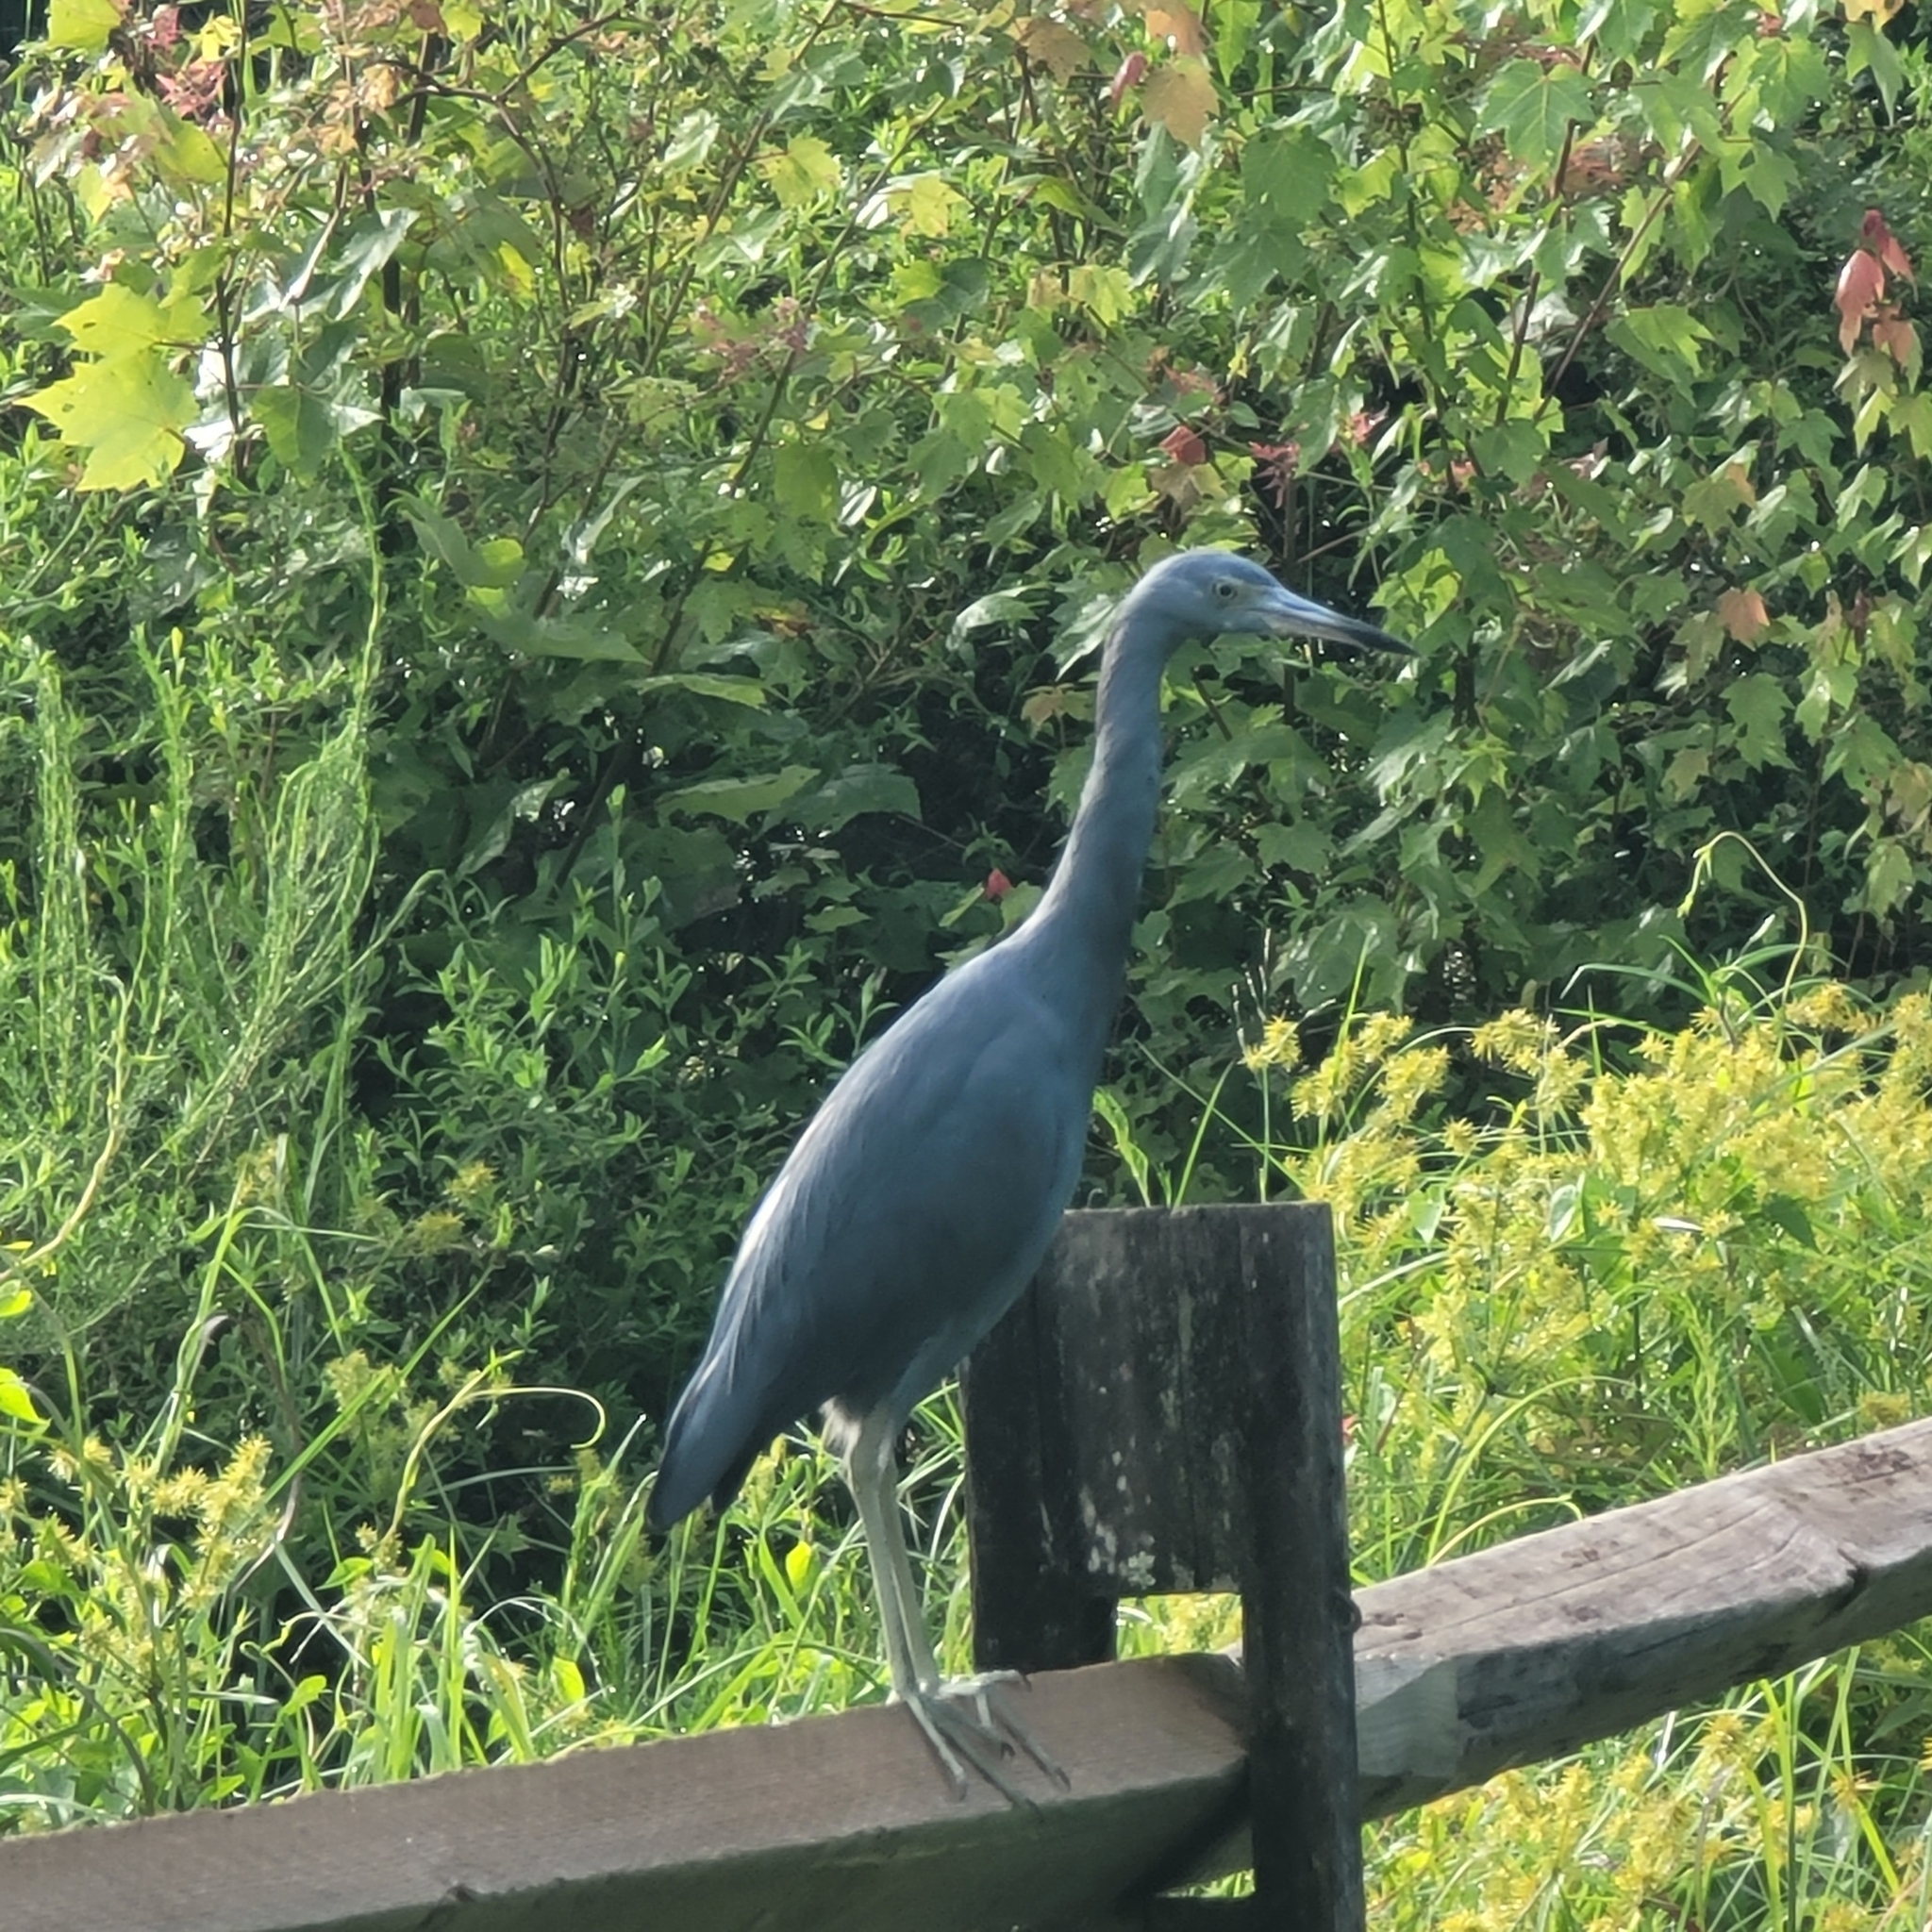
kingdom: Animalia
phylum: Chordata
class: Aves
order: Pelecaniformes
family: Ardeidae
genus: Egretta
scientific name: Egretta caerulea
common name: Little blue heron
